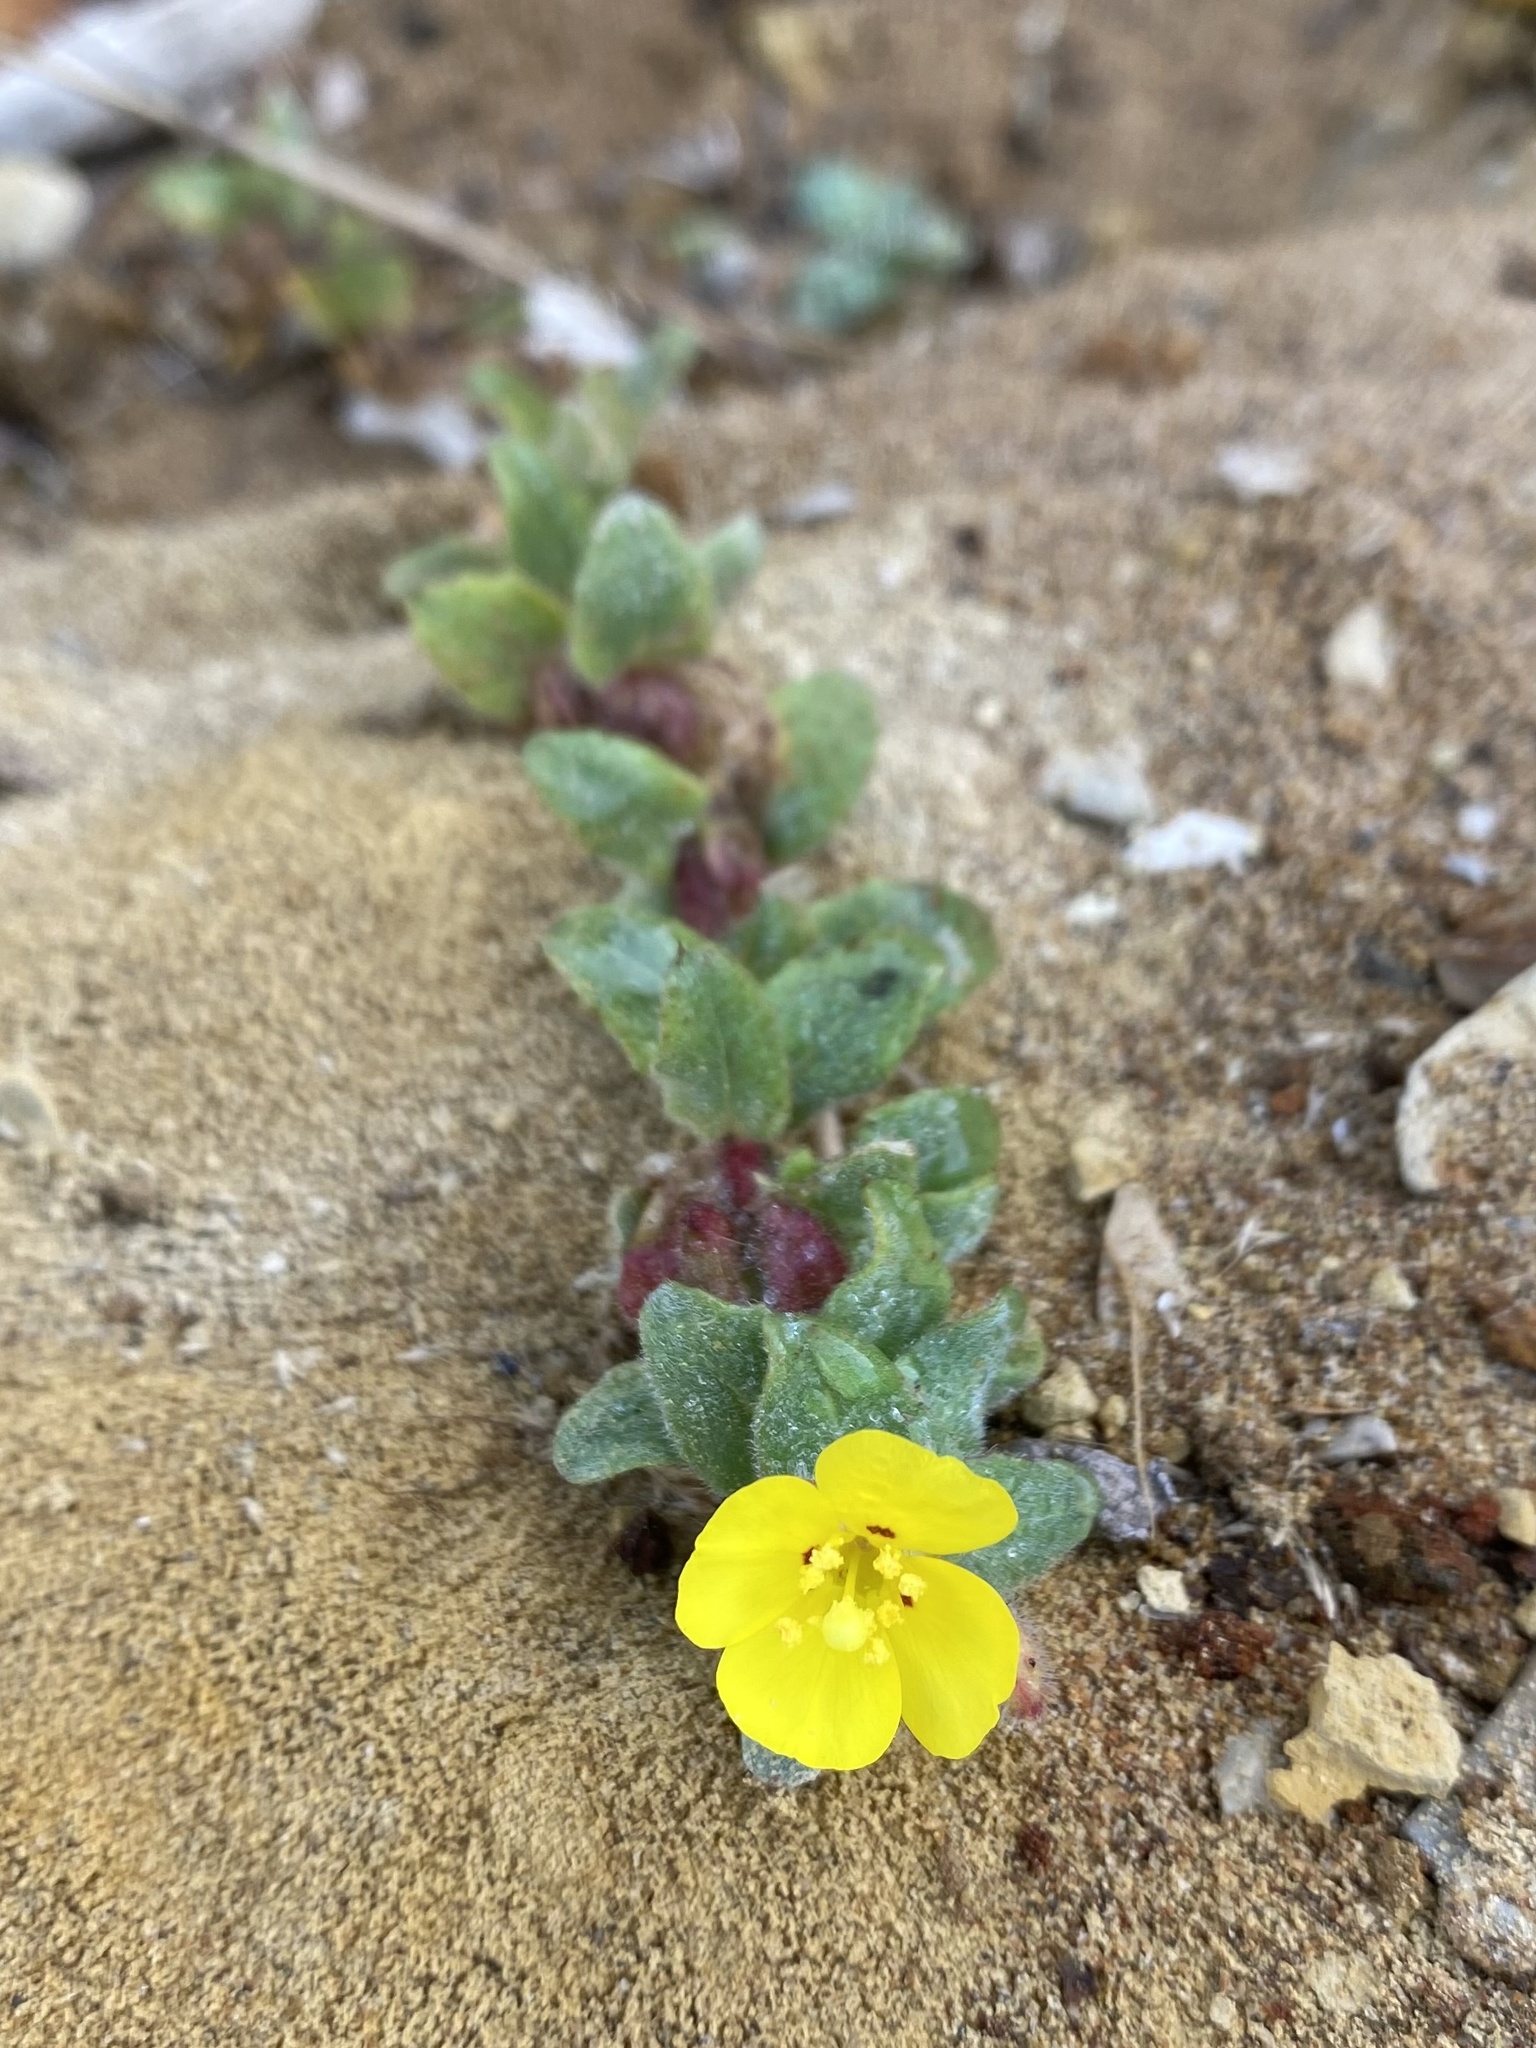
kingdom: Plantae
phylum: Tracheophyta
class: Magnoliopsida
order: Myrtales
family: Onagraceae
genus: Camissoniopsis
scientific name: Camissoniopsis cheiranthifolia
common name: Beach suncup
